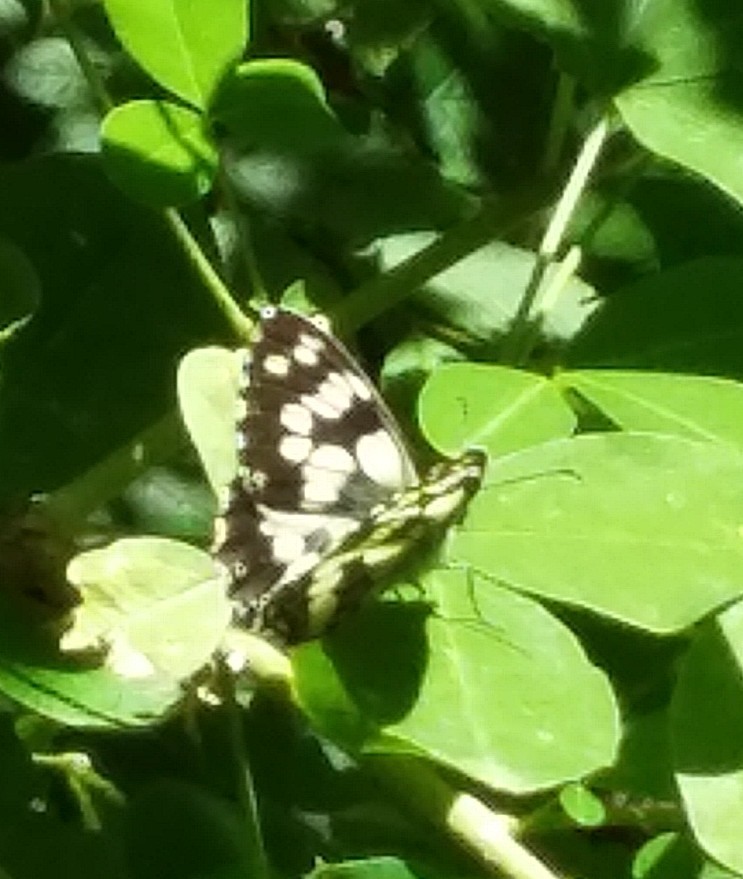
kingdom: Animalia
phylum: Arthropoda
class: Insecta
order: Lepidoptera
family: Nymphalidae
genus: Melanargia
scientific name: Melanargia galathea
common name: Marbled white
